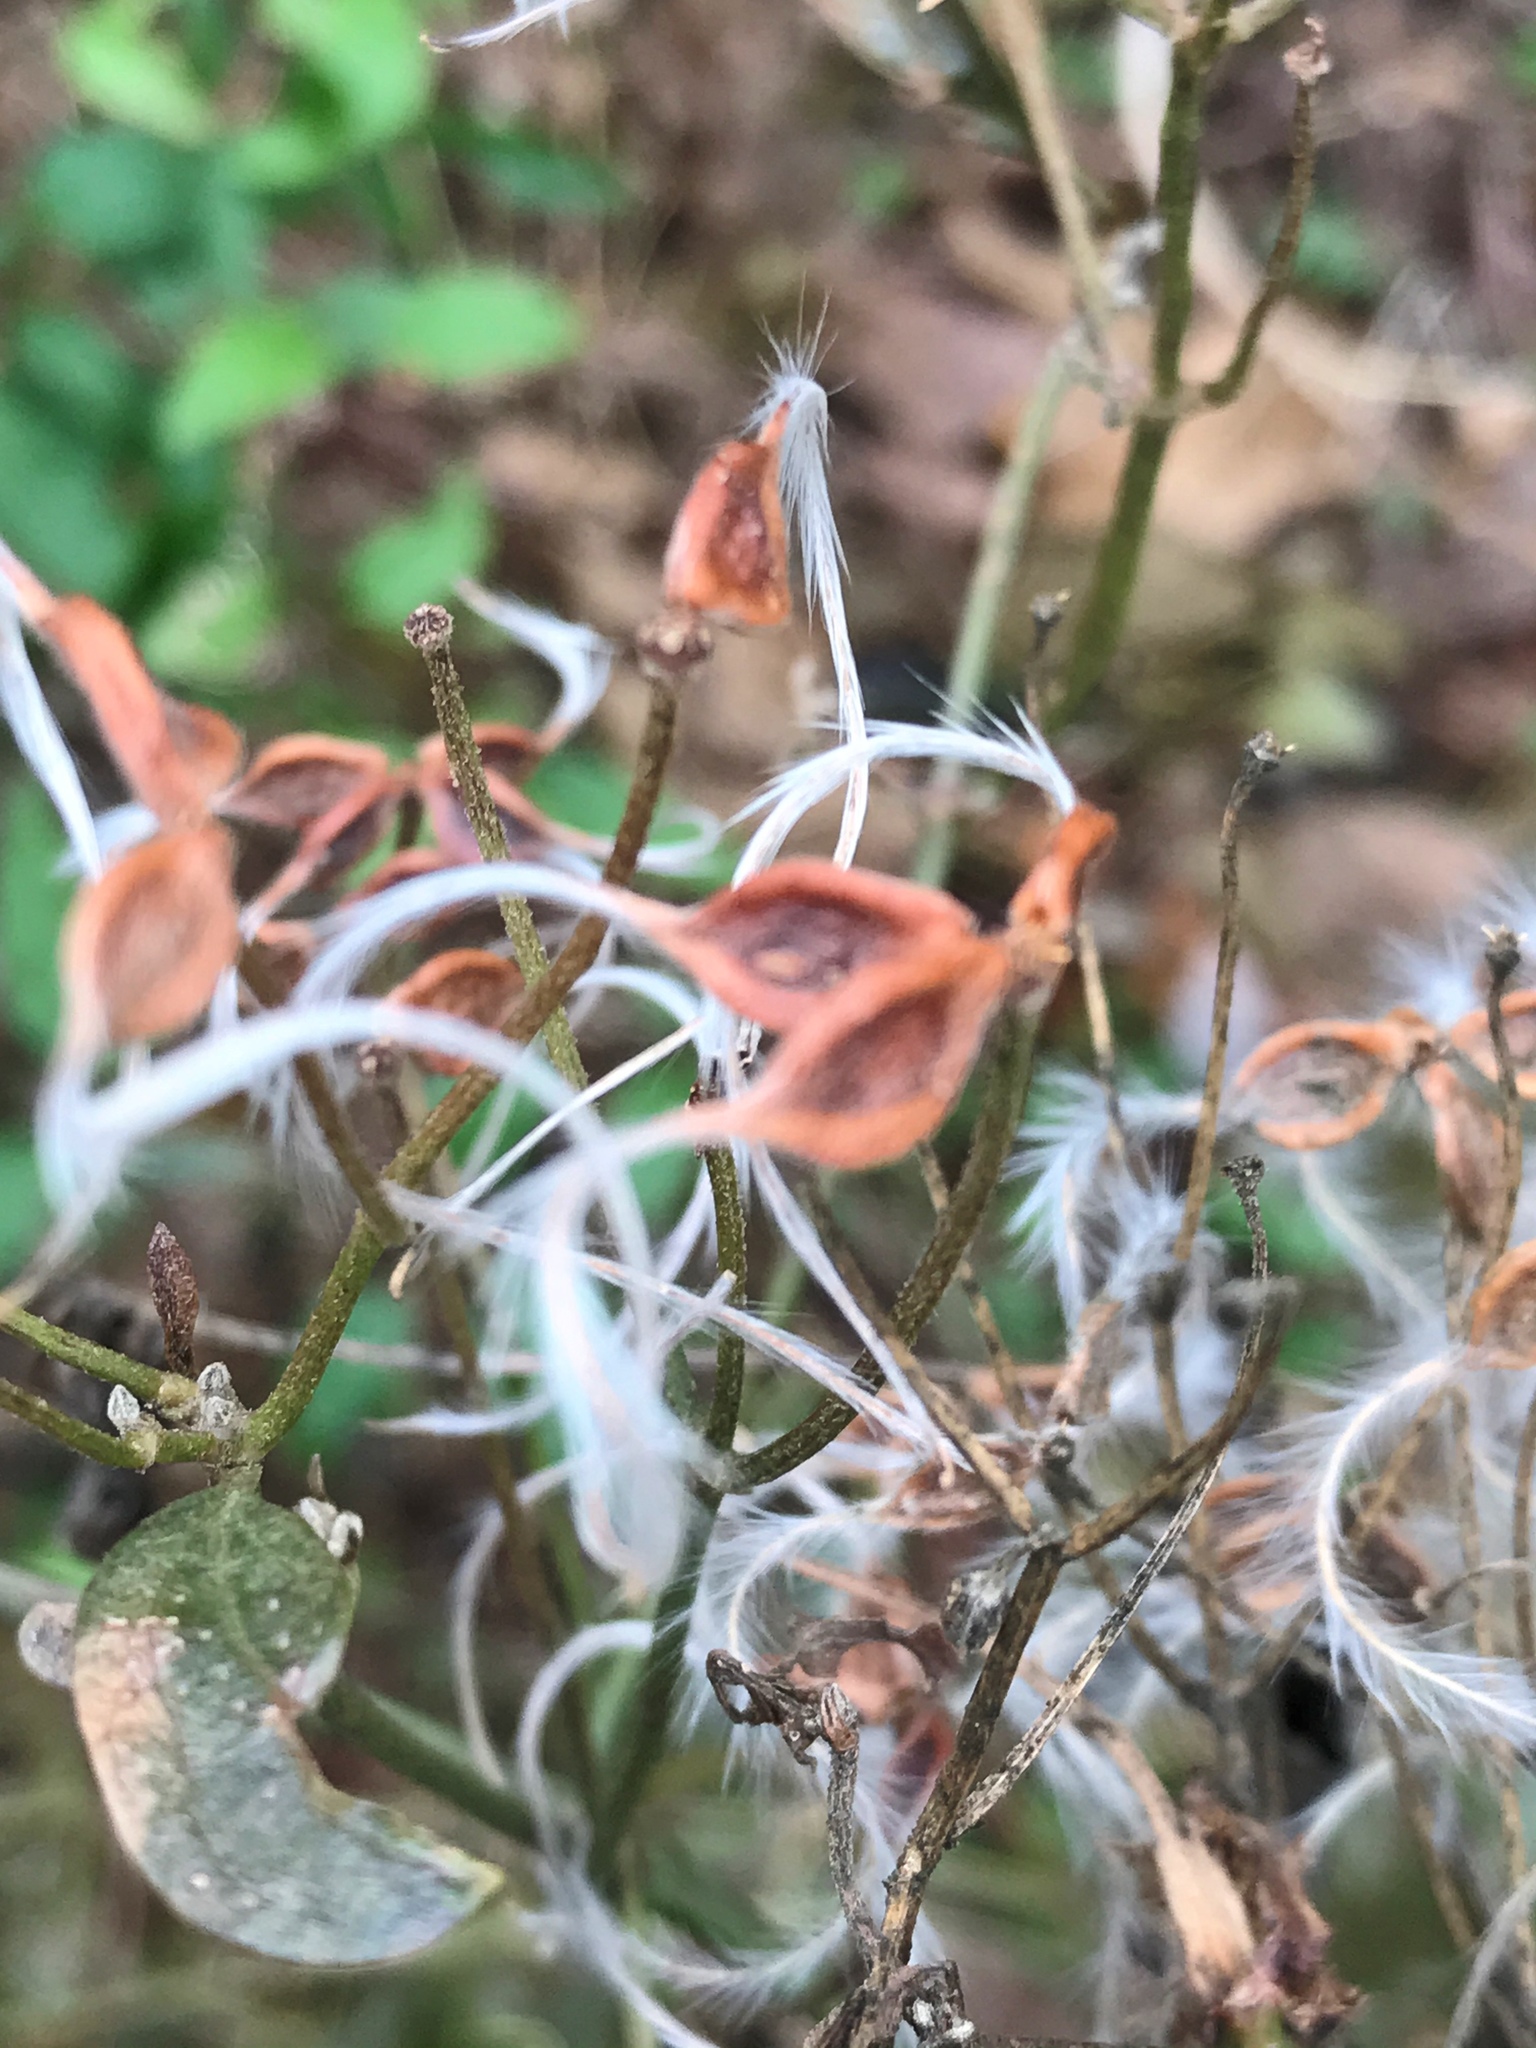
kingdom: Plantae
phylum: Tracheophyta
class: Magnoliopsida
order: Ranunculales
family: Ranunculaceae
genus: Clematis
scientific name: Clematis terniflora
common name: Sweet autumn clematis
